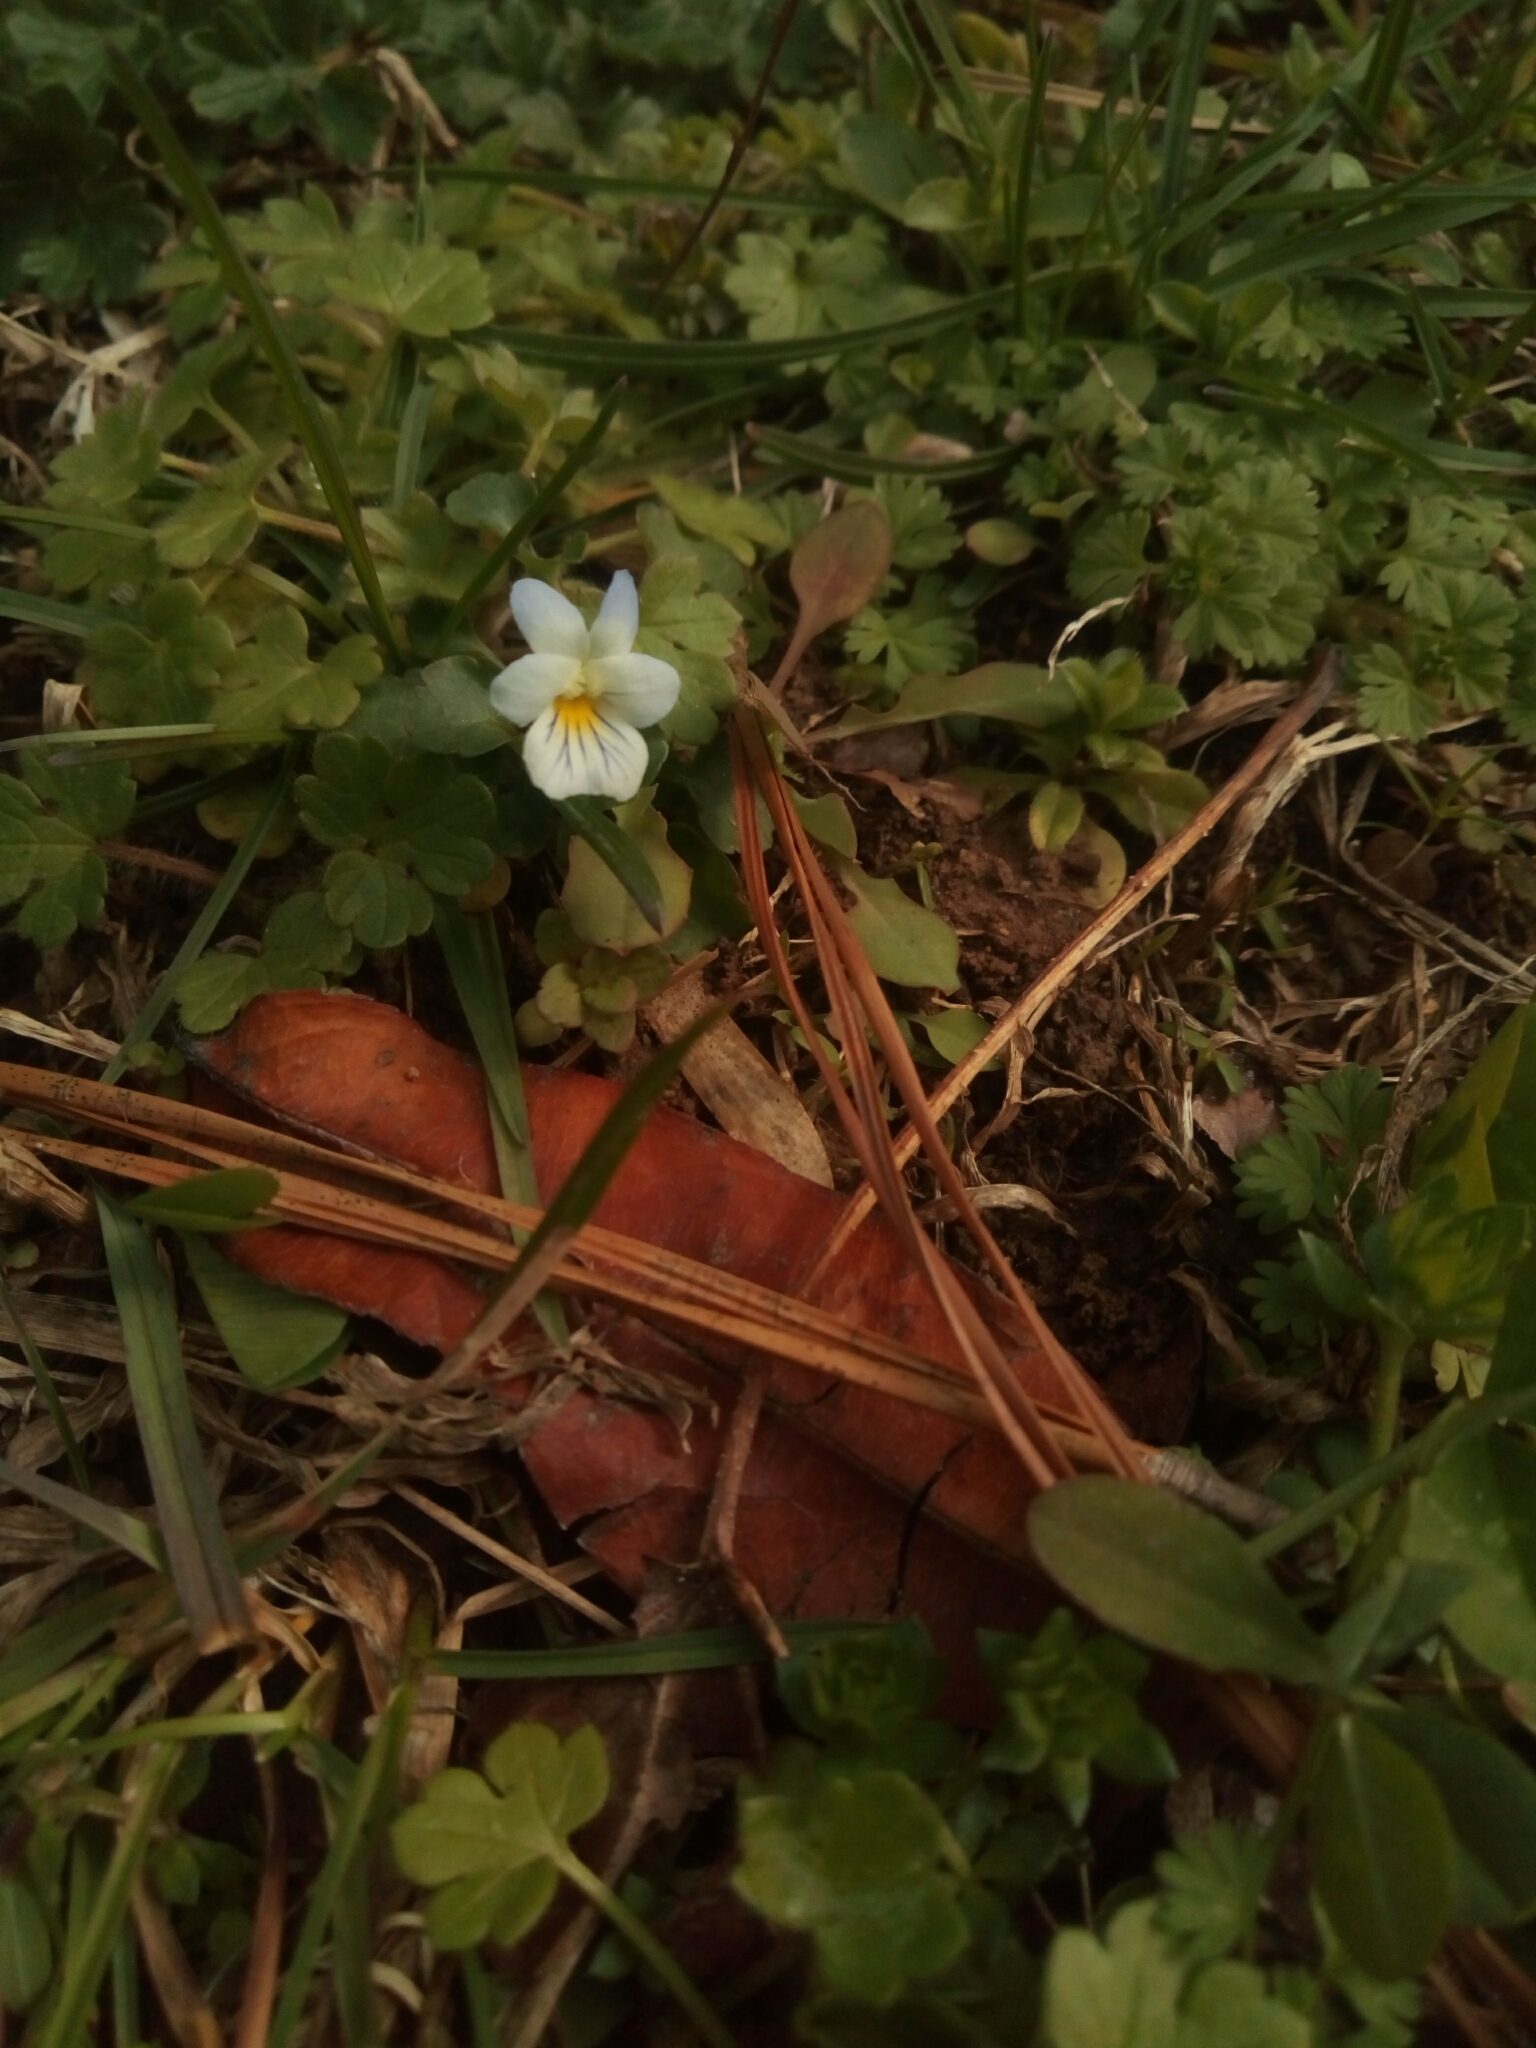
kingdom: Plantae
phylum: Tracheophyta
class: Magnoliopsida
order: Malpighiales
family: Violaceae
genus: Viola
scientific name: Viola rafinesquei
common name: American field pansy
